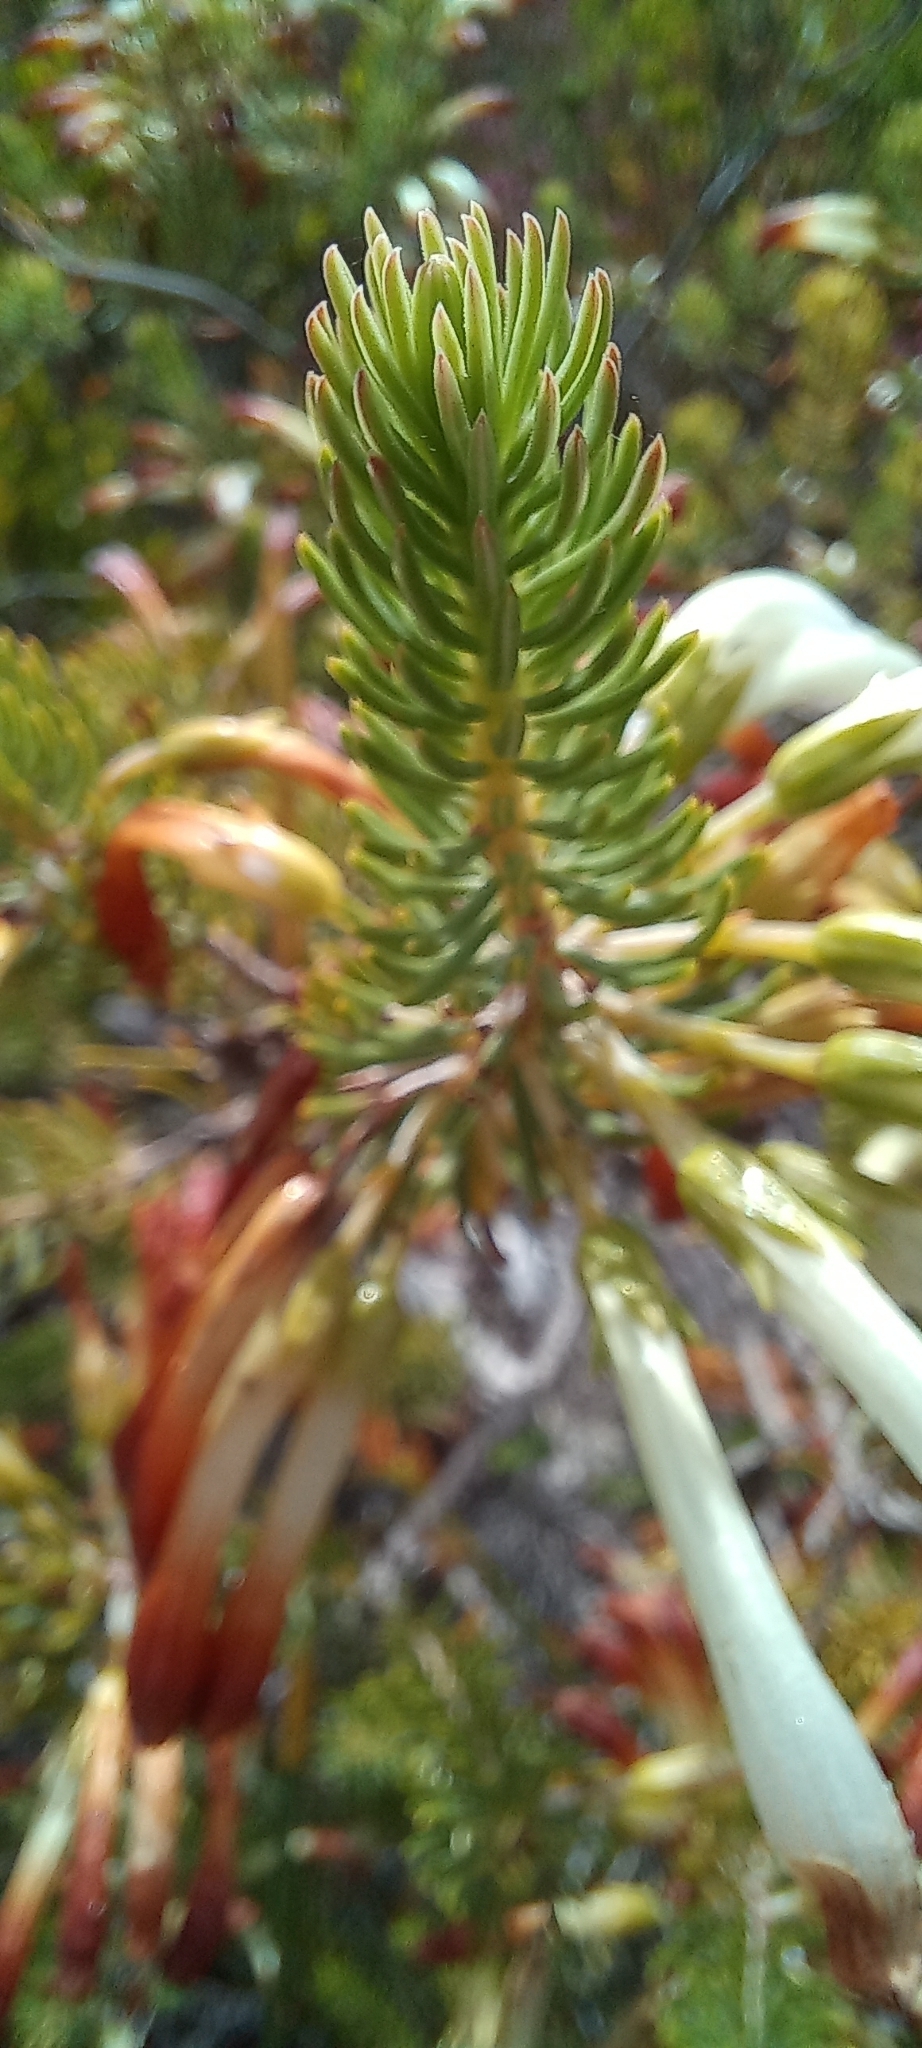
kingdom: Plantae
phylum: Tracheophyta
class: Magnoliopsida
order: Ericales
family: Ericaceae
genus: Erica
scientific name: Erica thomae
